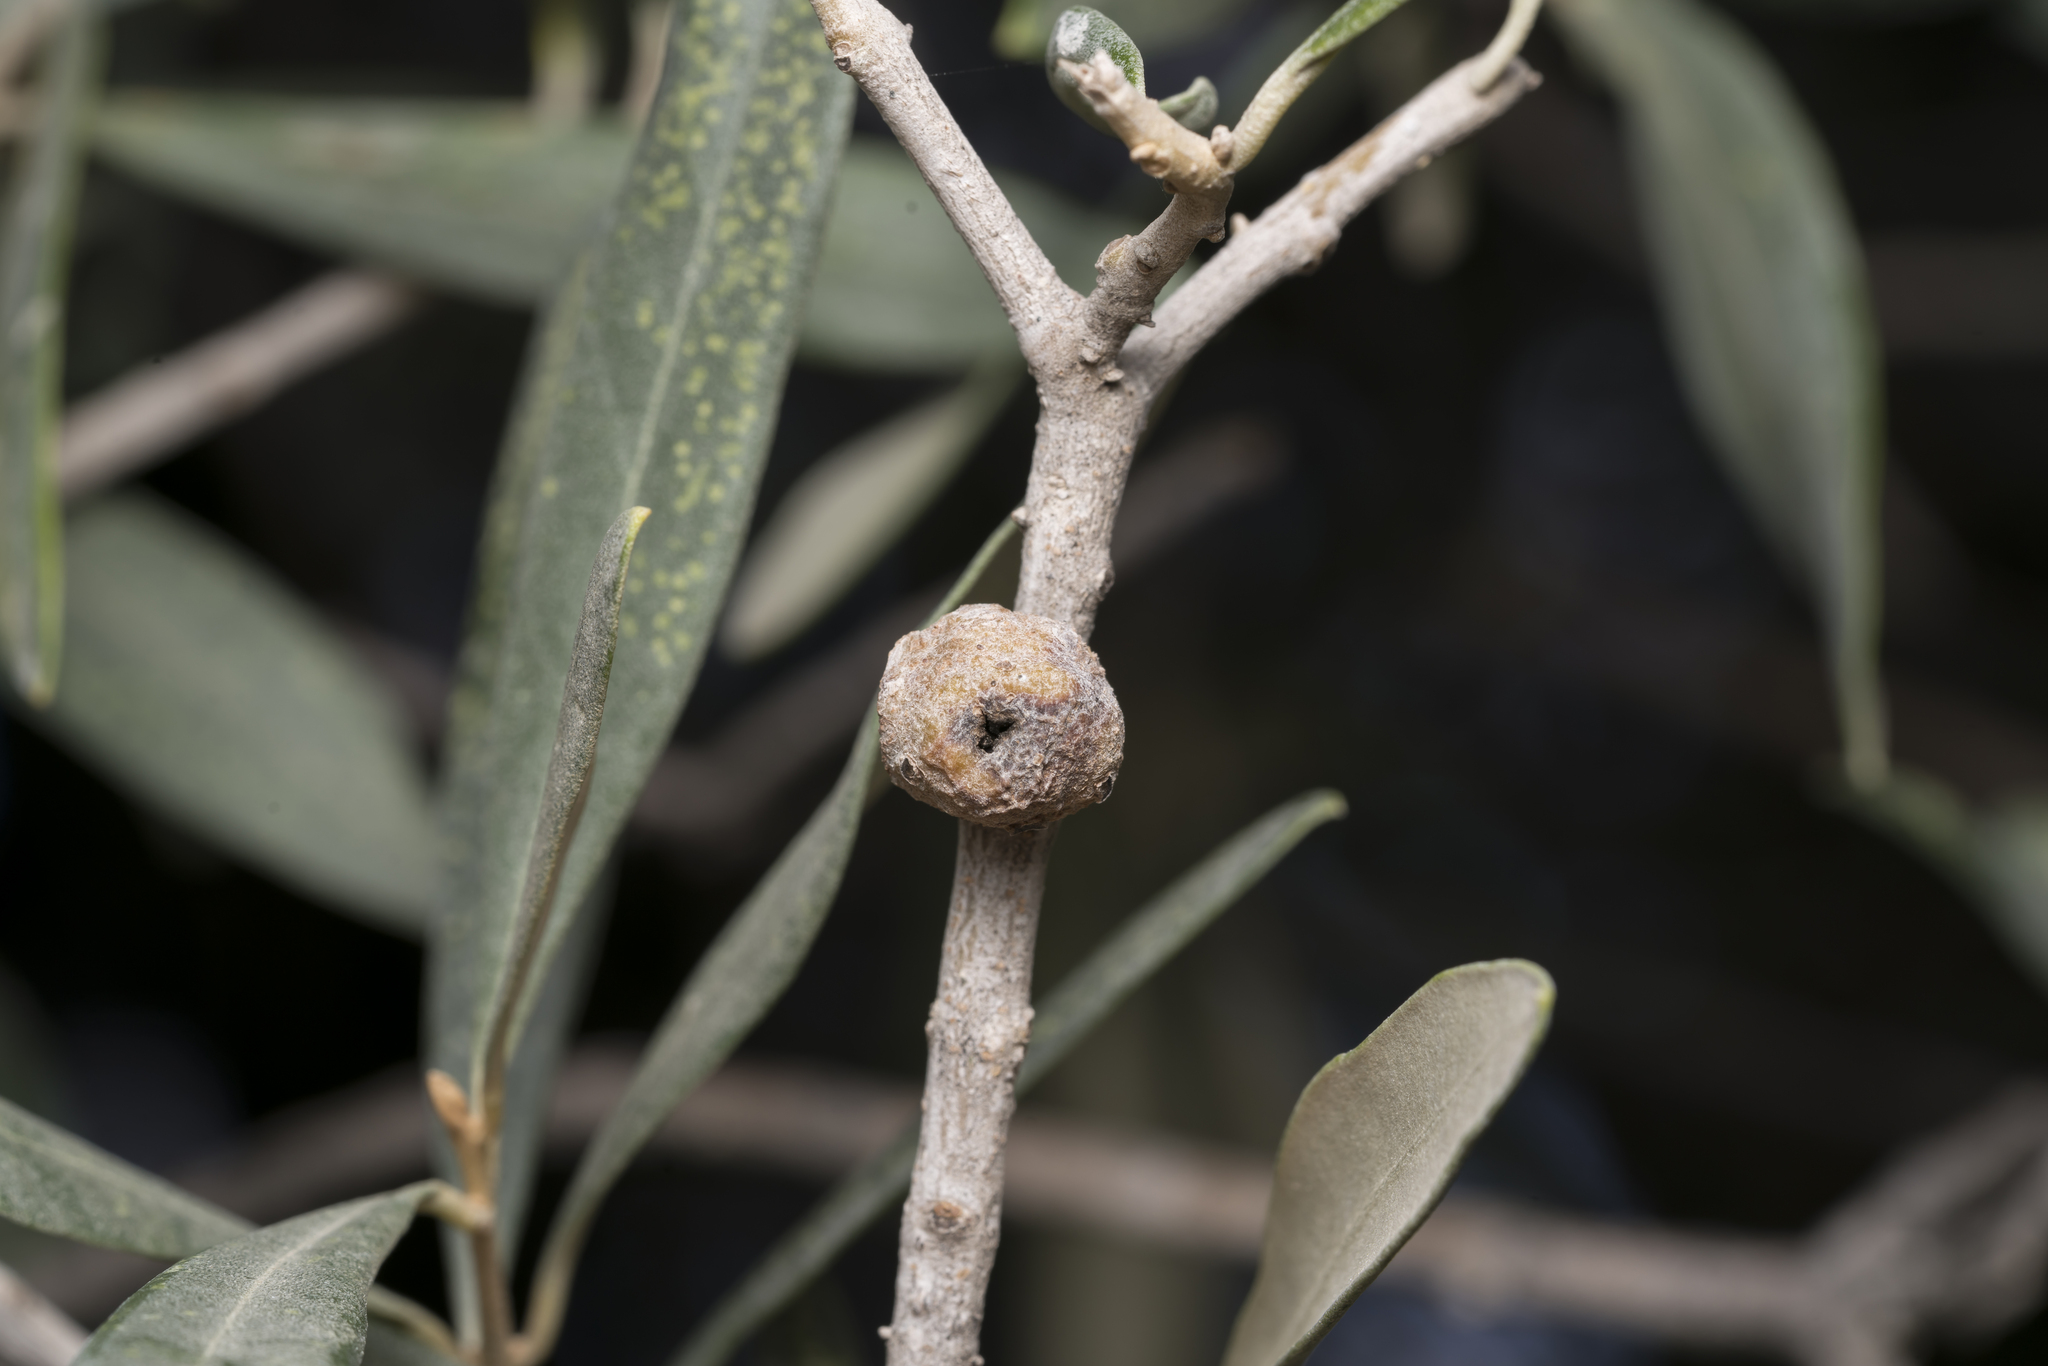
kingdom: Bacteria
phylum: Proteobacteria
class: Gammaproteobacteria
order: Pseudomonadales
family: Pseudomonadaceae
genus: Pseudomonas
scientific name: Pseudomonas
